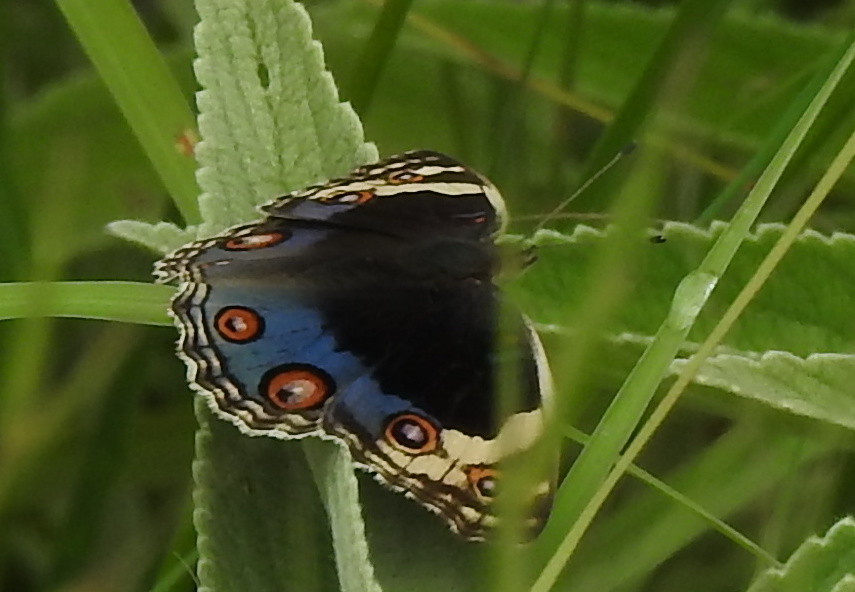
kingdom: Animalia
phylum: Arthropoda
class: Insecta
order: Lepidoptera
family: Nymphalidae
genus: Junonia
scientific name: Junonia orithya
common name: Blue pansy
